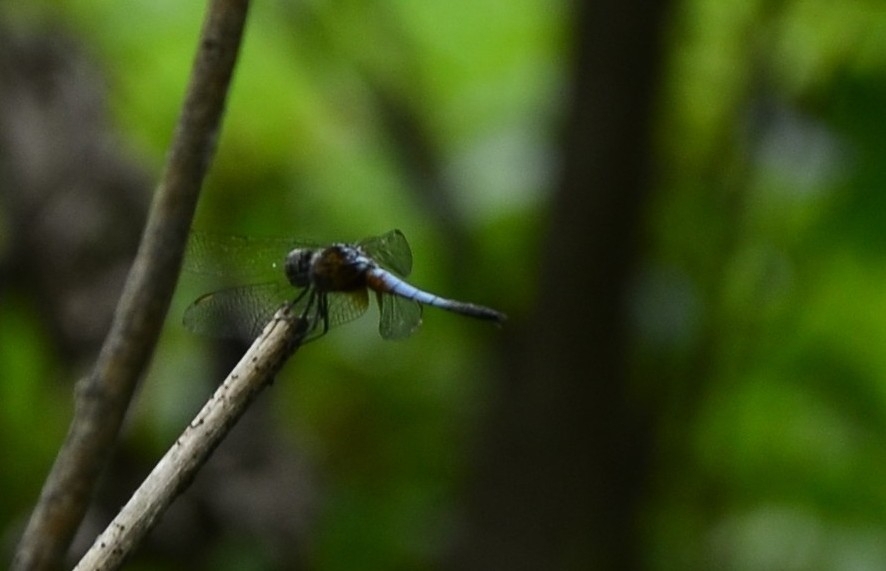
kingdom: Animalia
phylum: Arthropoda
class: Insecta
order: Odonata
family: Libellulidae
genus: Brachydiplax
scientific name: Brachydiplax chalybea
